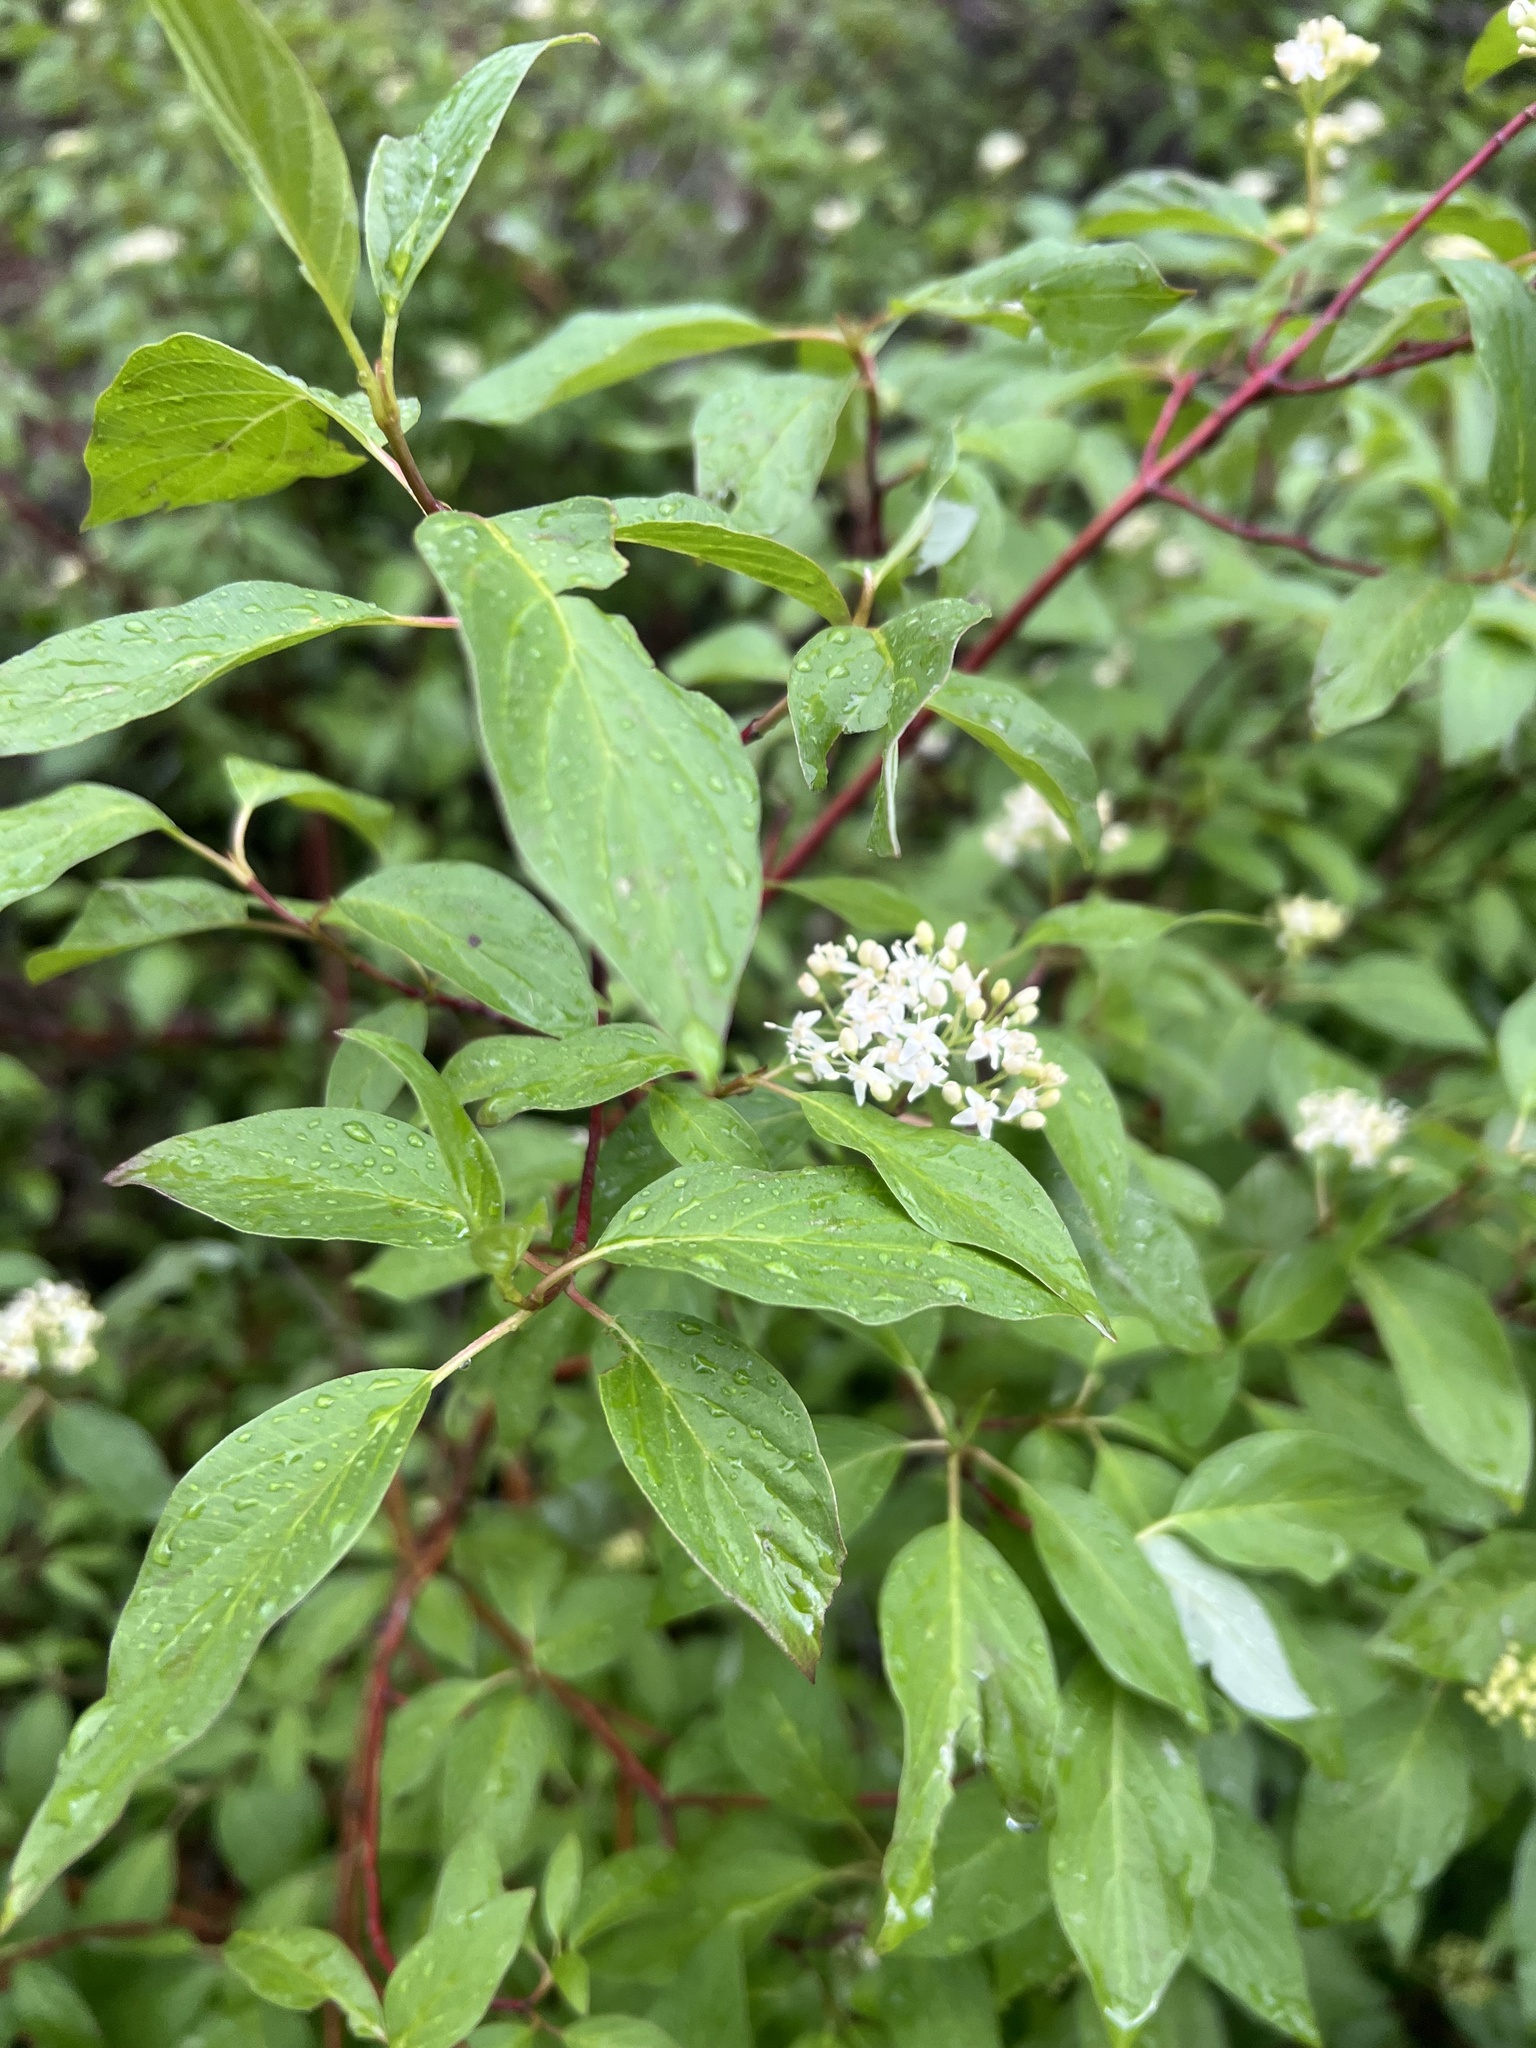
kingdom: Plantae
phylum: Tracheophyta
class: Magnoliopsida
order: Cornales
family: Cornaceae
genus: Cornus
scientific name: Cornus sericea
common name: Red-osier dogwood
